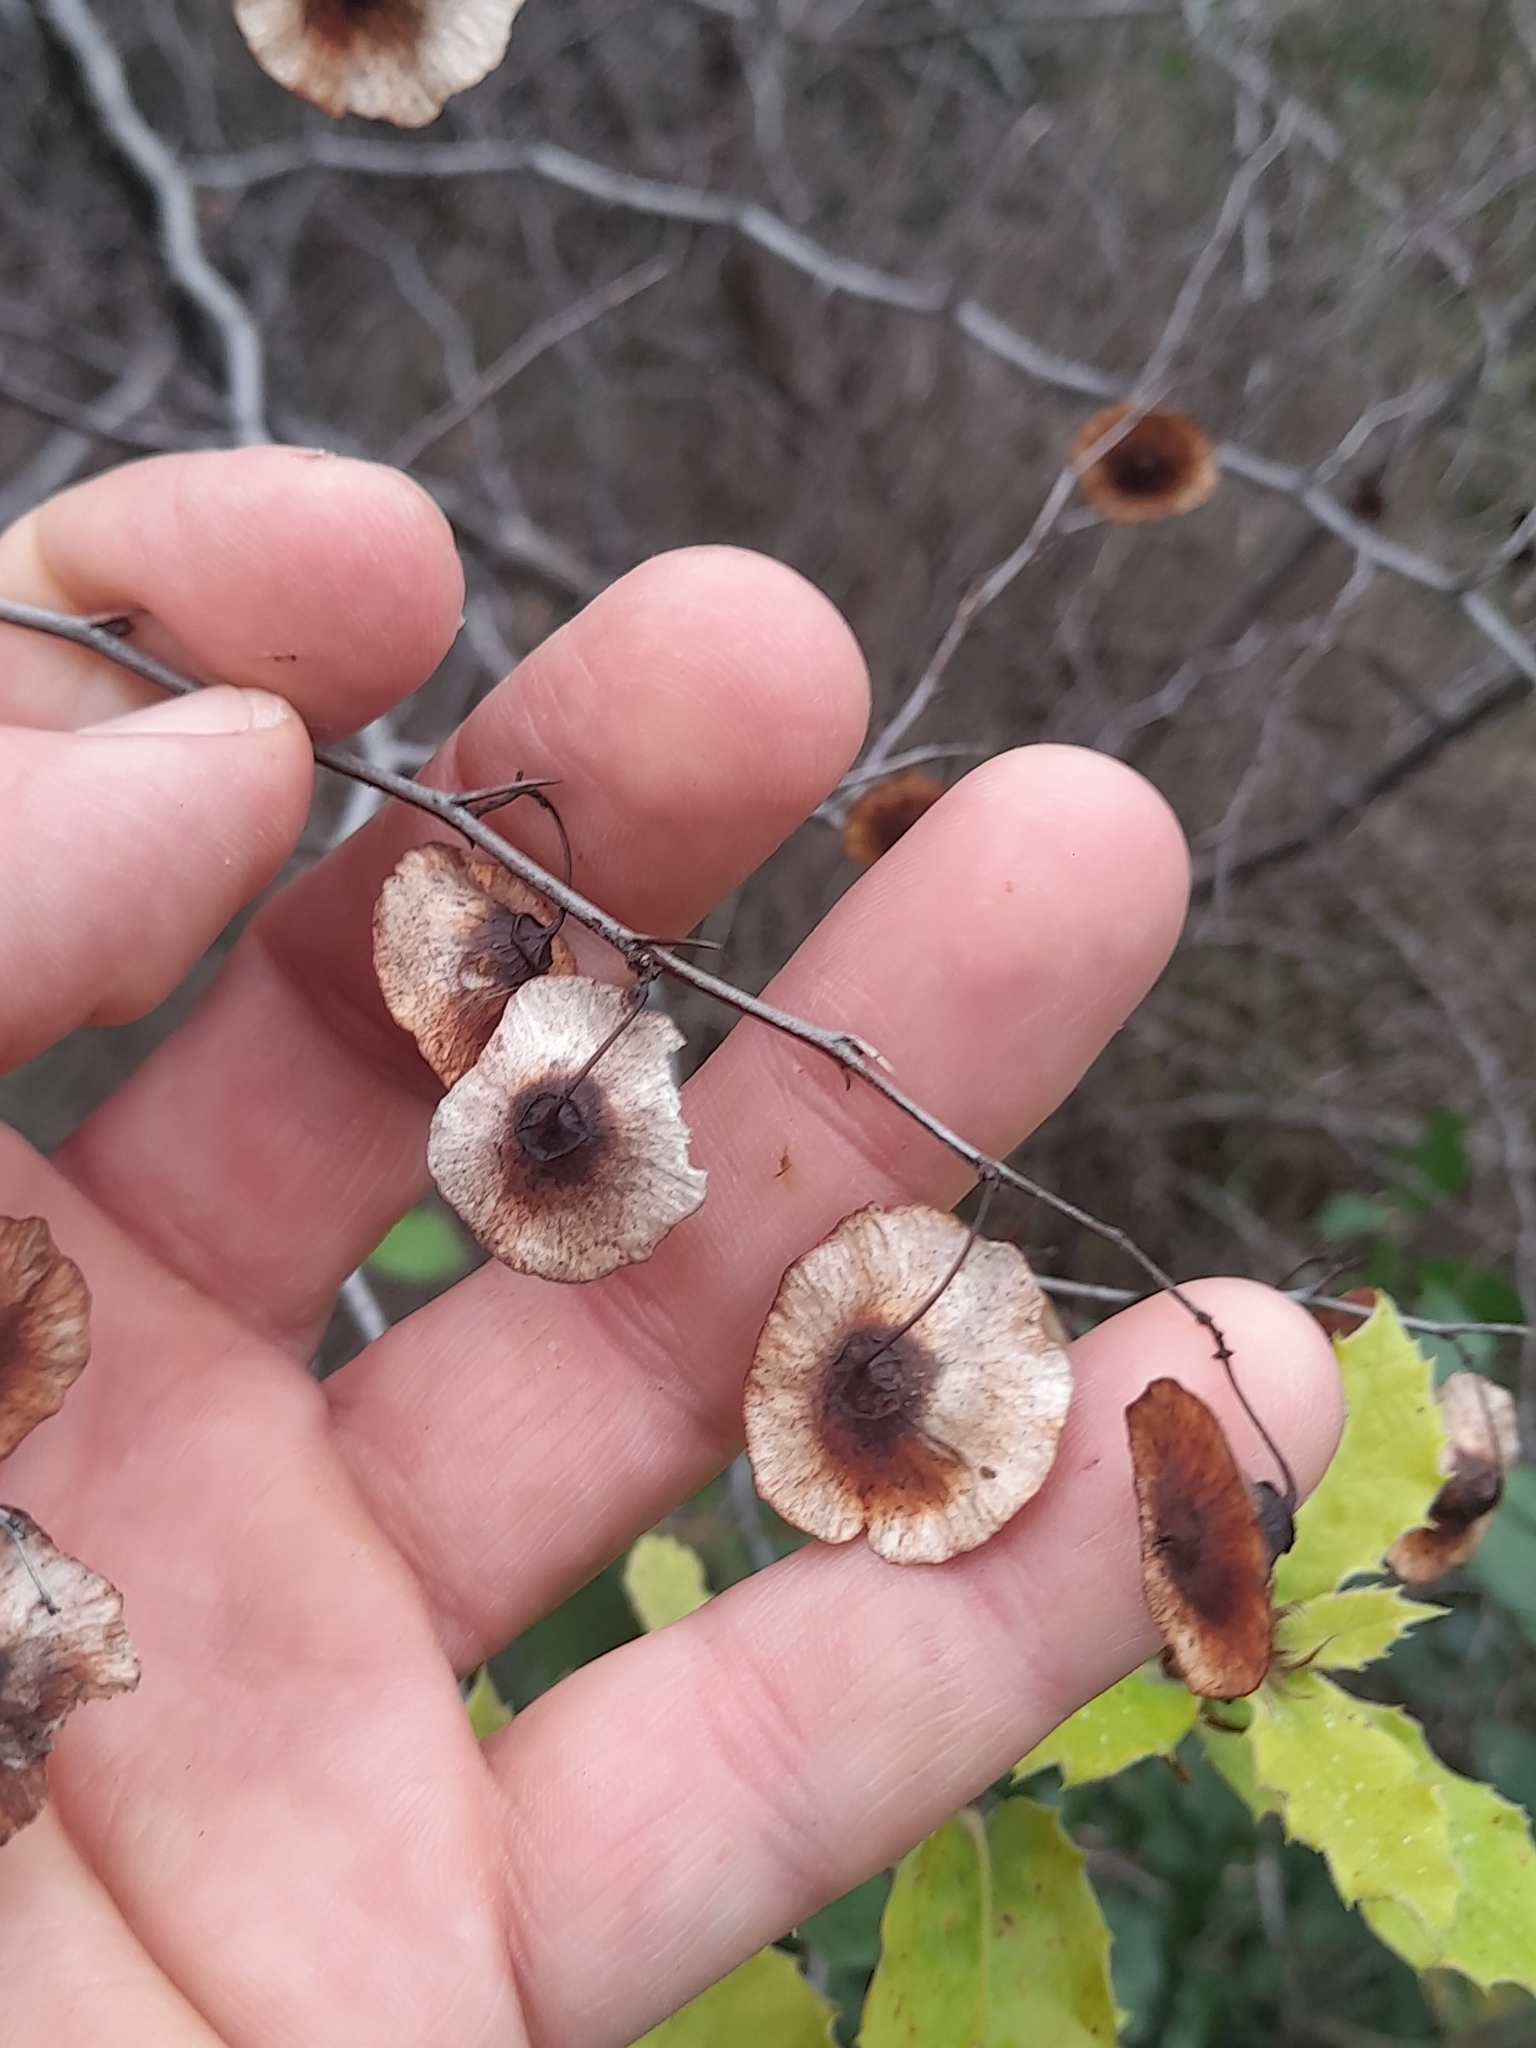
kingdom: Plantae
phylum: Tracheophyta
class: Magnoliopsida
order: Rosales
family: Rhamnaceae
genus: Paliurus
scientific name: Paliurus spina-christi
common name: Jeruselem thorn
